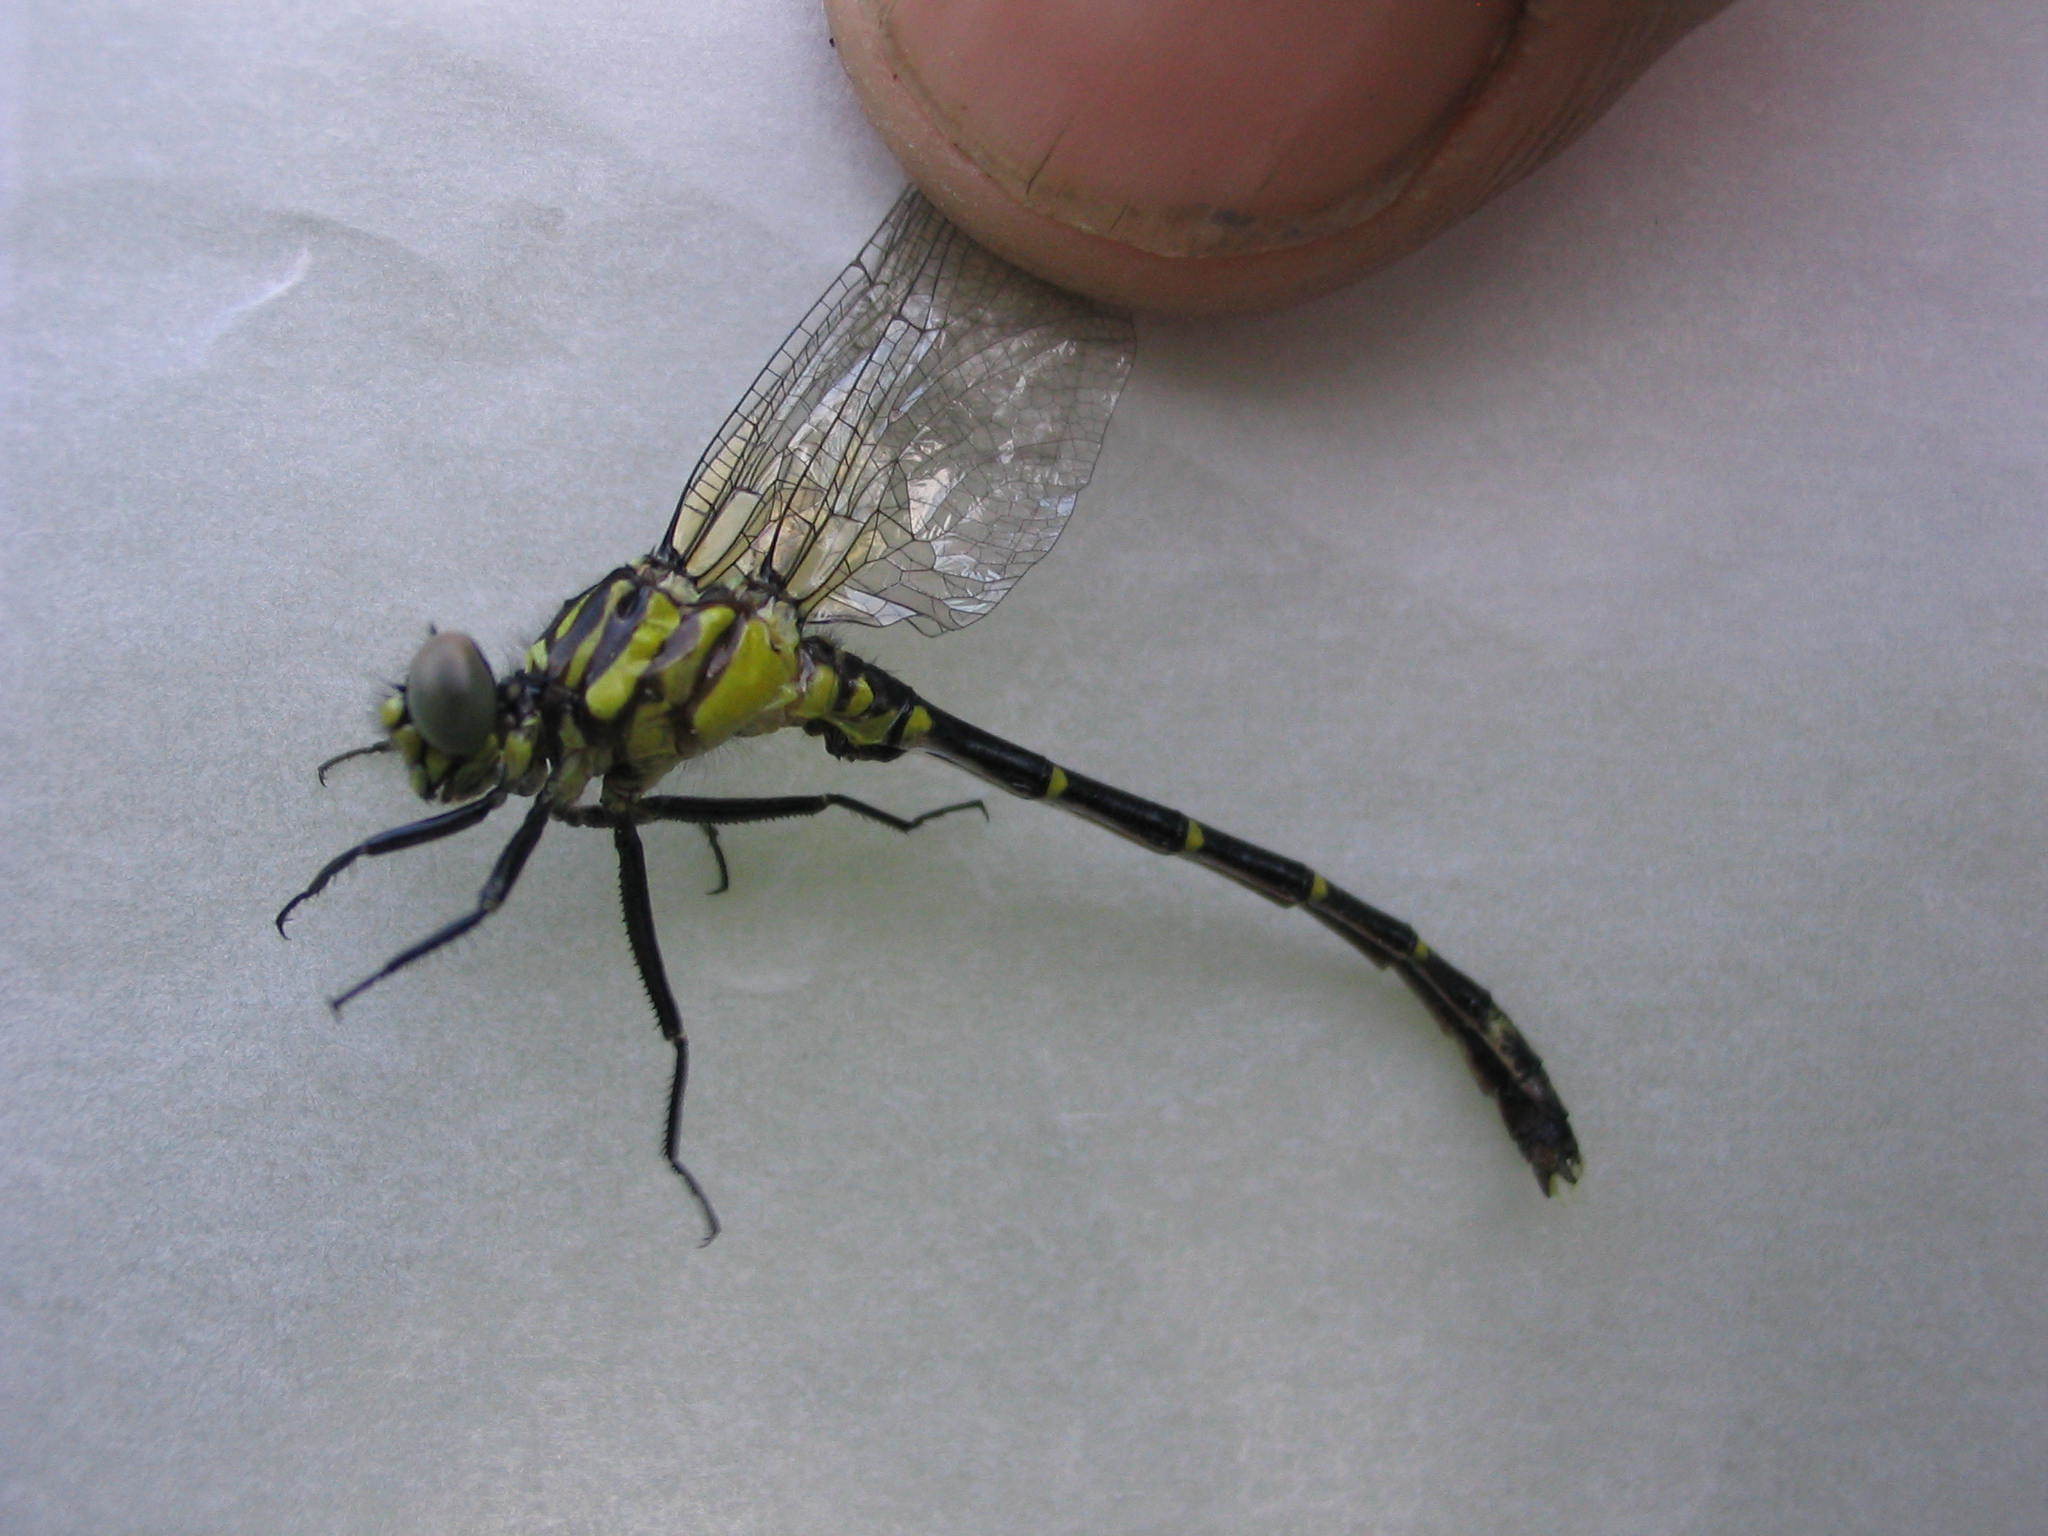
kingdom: Animalia
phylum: Arthropoda
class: Insecta
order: Odonata
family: Gomphidae
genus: Stylogomphus
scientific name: Stylogomphus albistylus
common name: Eastern least clubtail
